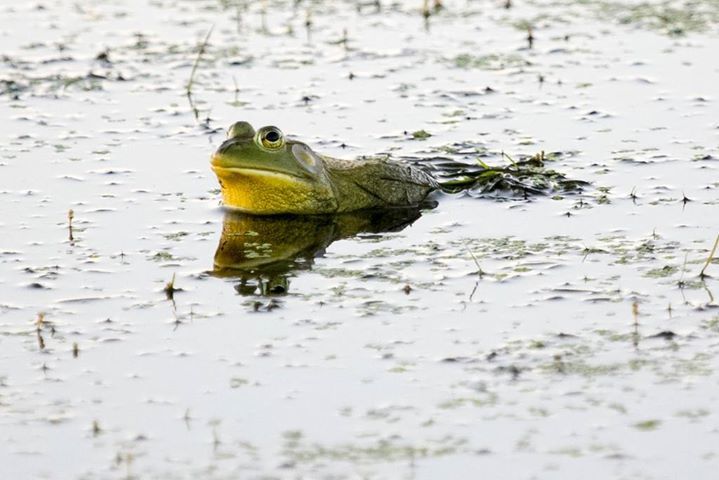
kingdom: Animalia
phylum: Chordata
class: Amphibia
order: Anura
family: Ranidae
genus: Lithobates
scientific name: Lithobates catesbeianus
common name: American bullfrog
